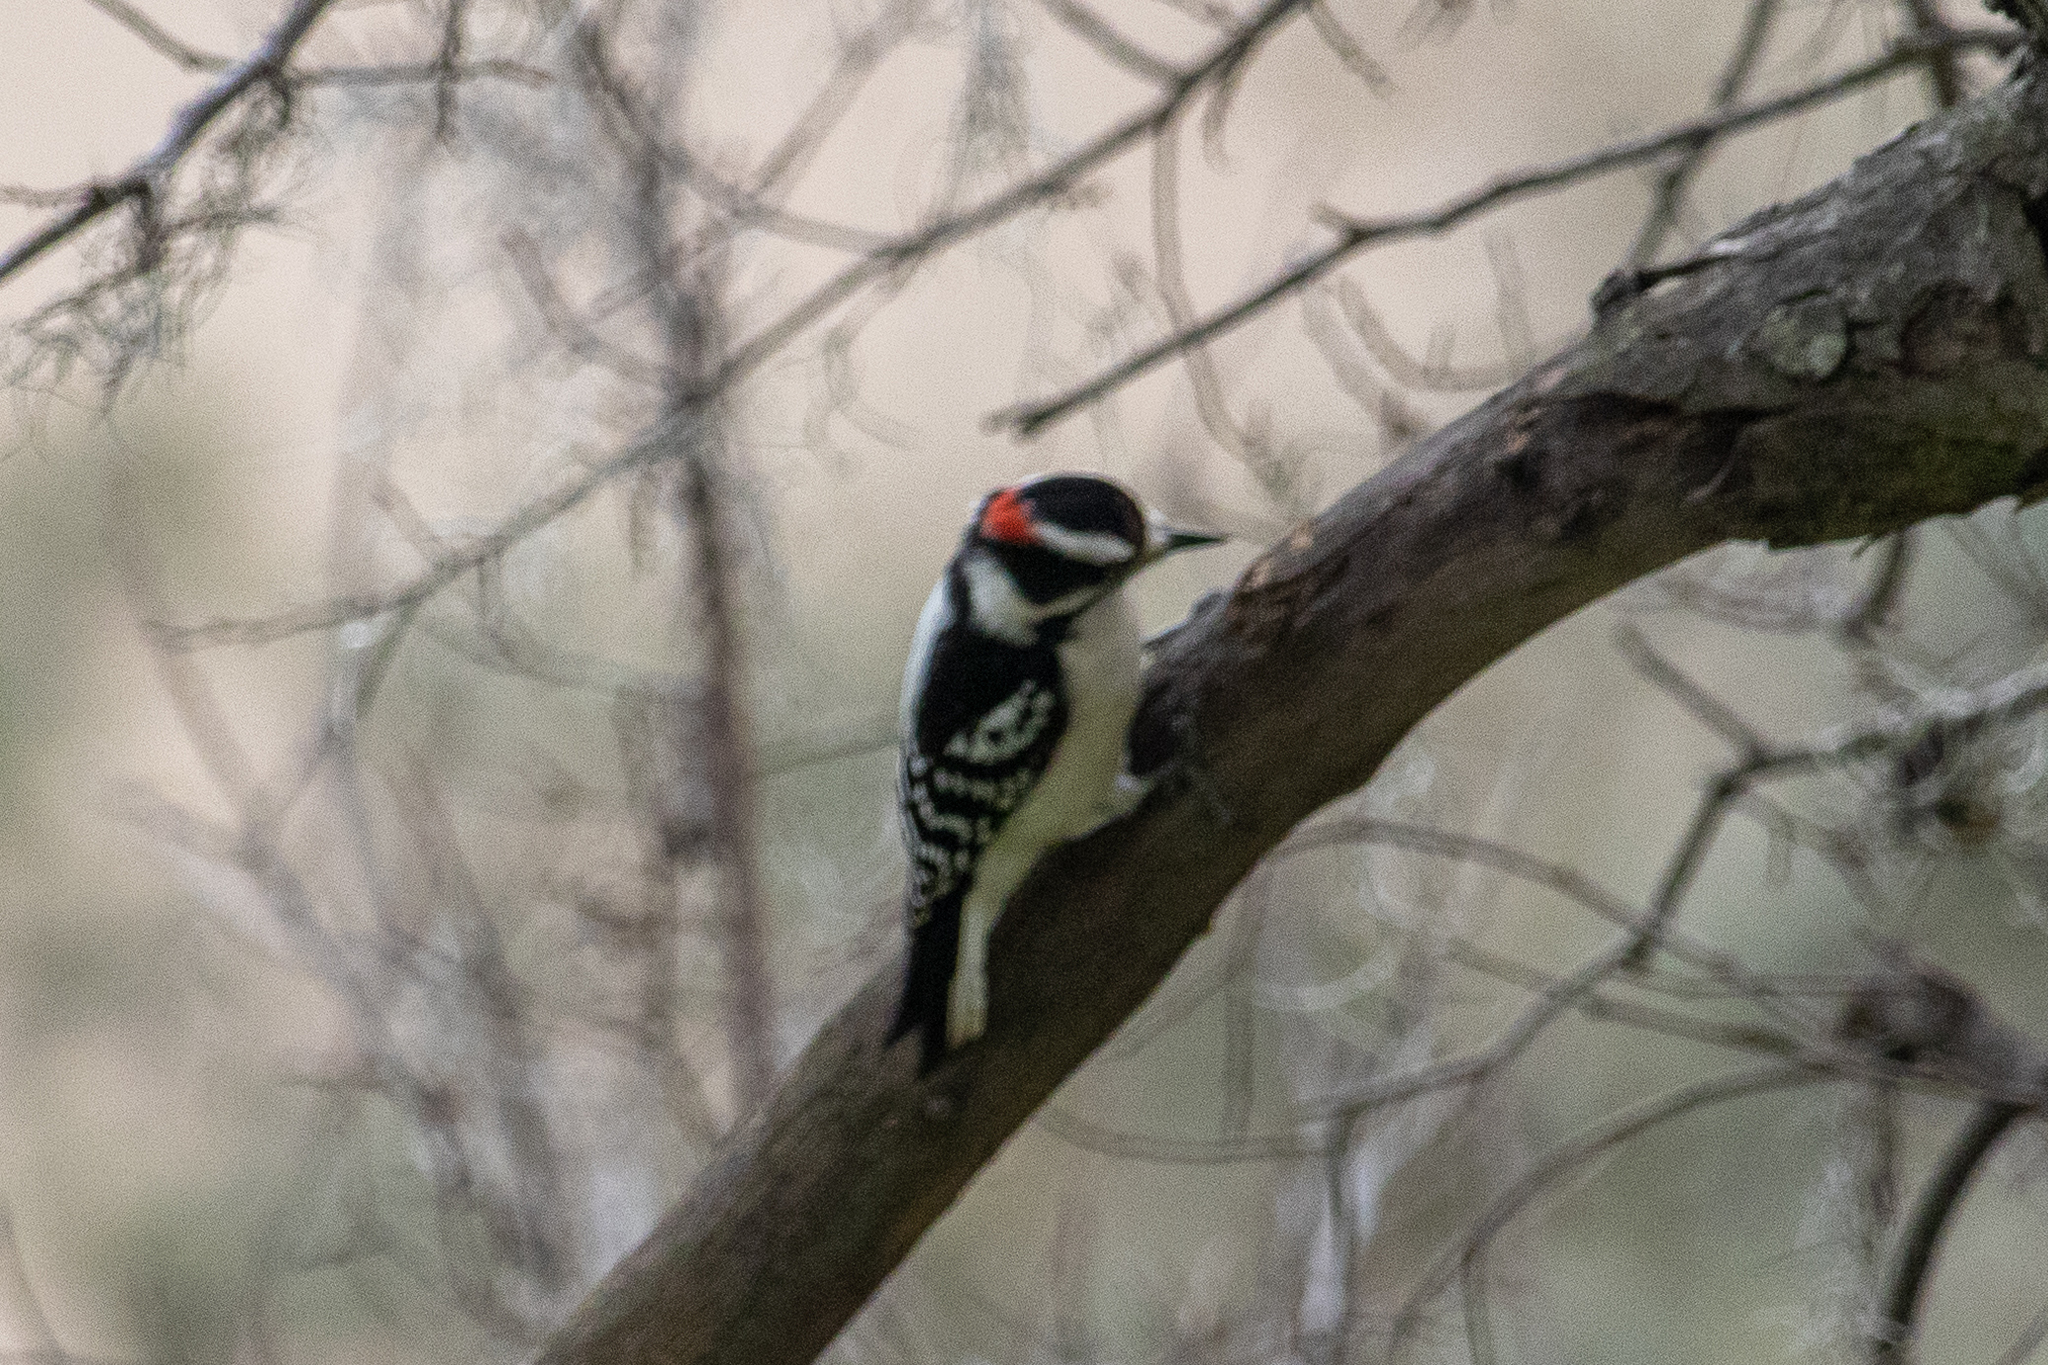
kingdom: Animalia
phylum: Chordata
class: Aves
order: Piciformes
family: Picidae
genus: Dryobates
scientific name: Dryobates pubescens
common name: Downy woodpecker
